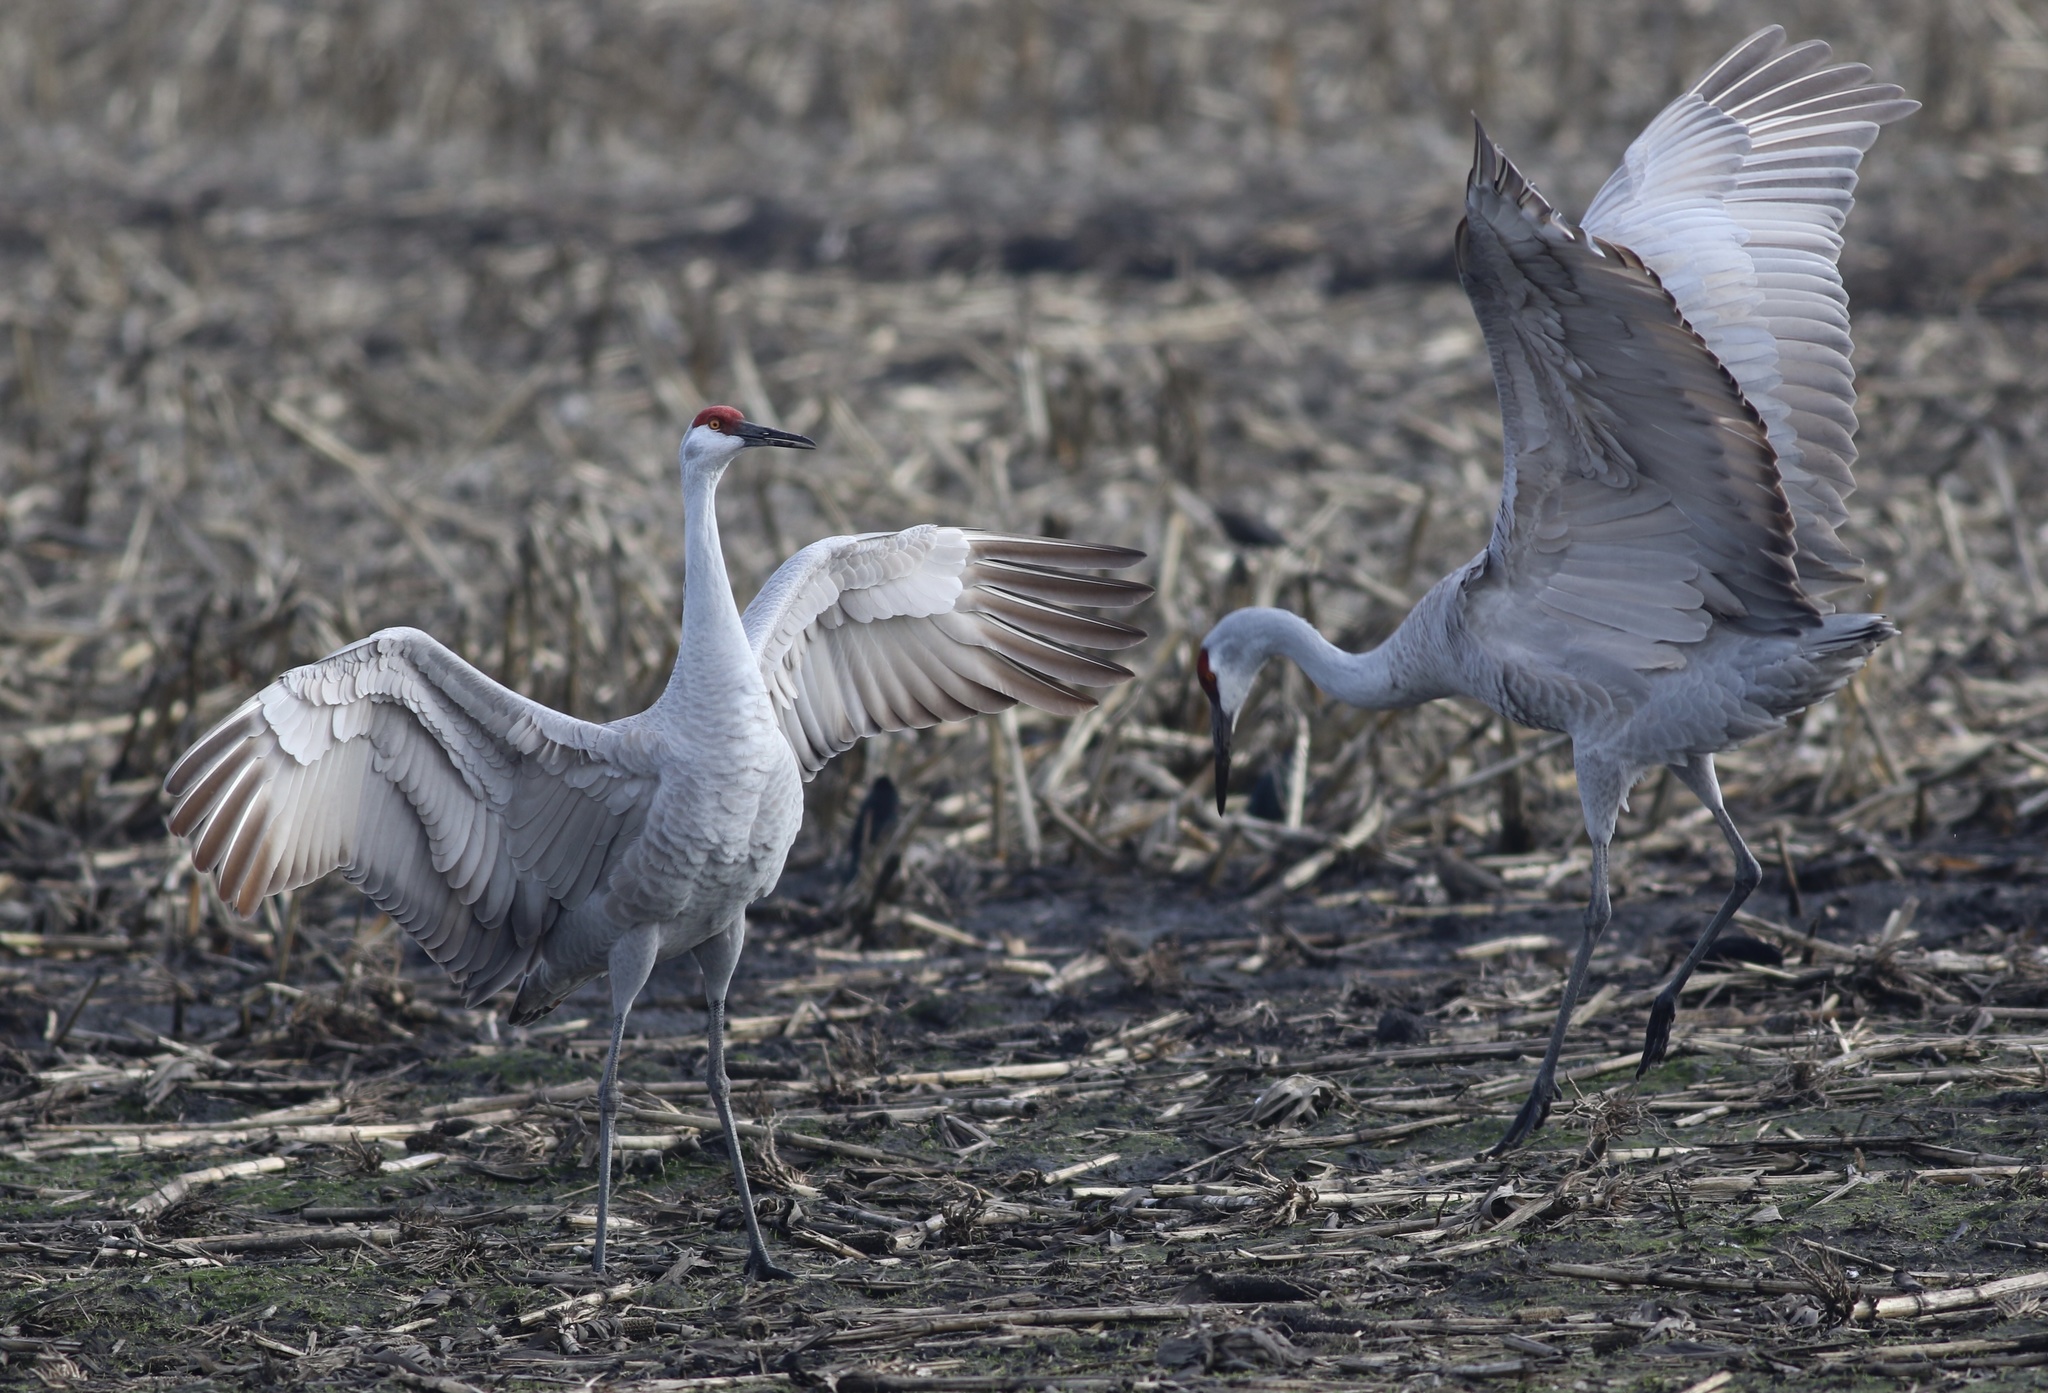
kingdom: Animalia
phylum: Chordata
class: Aves
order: Gruiformes
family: Gruidae
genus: Grus
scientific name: Grus canadensis
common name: Sandhill crane
